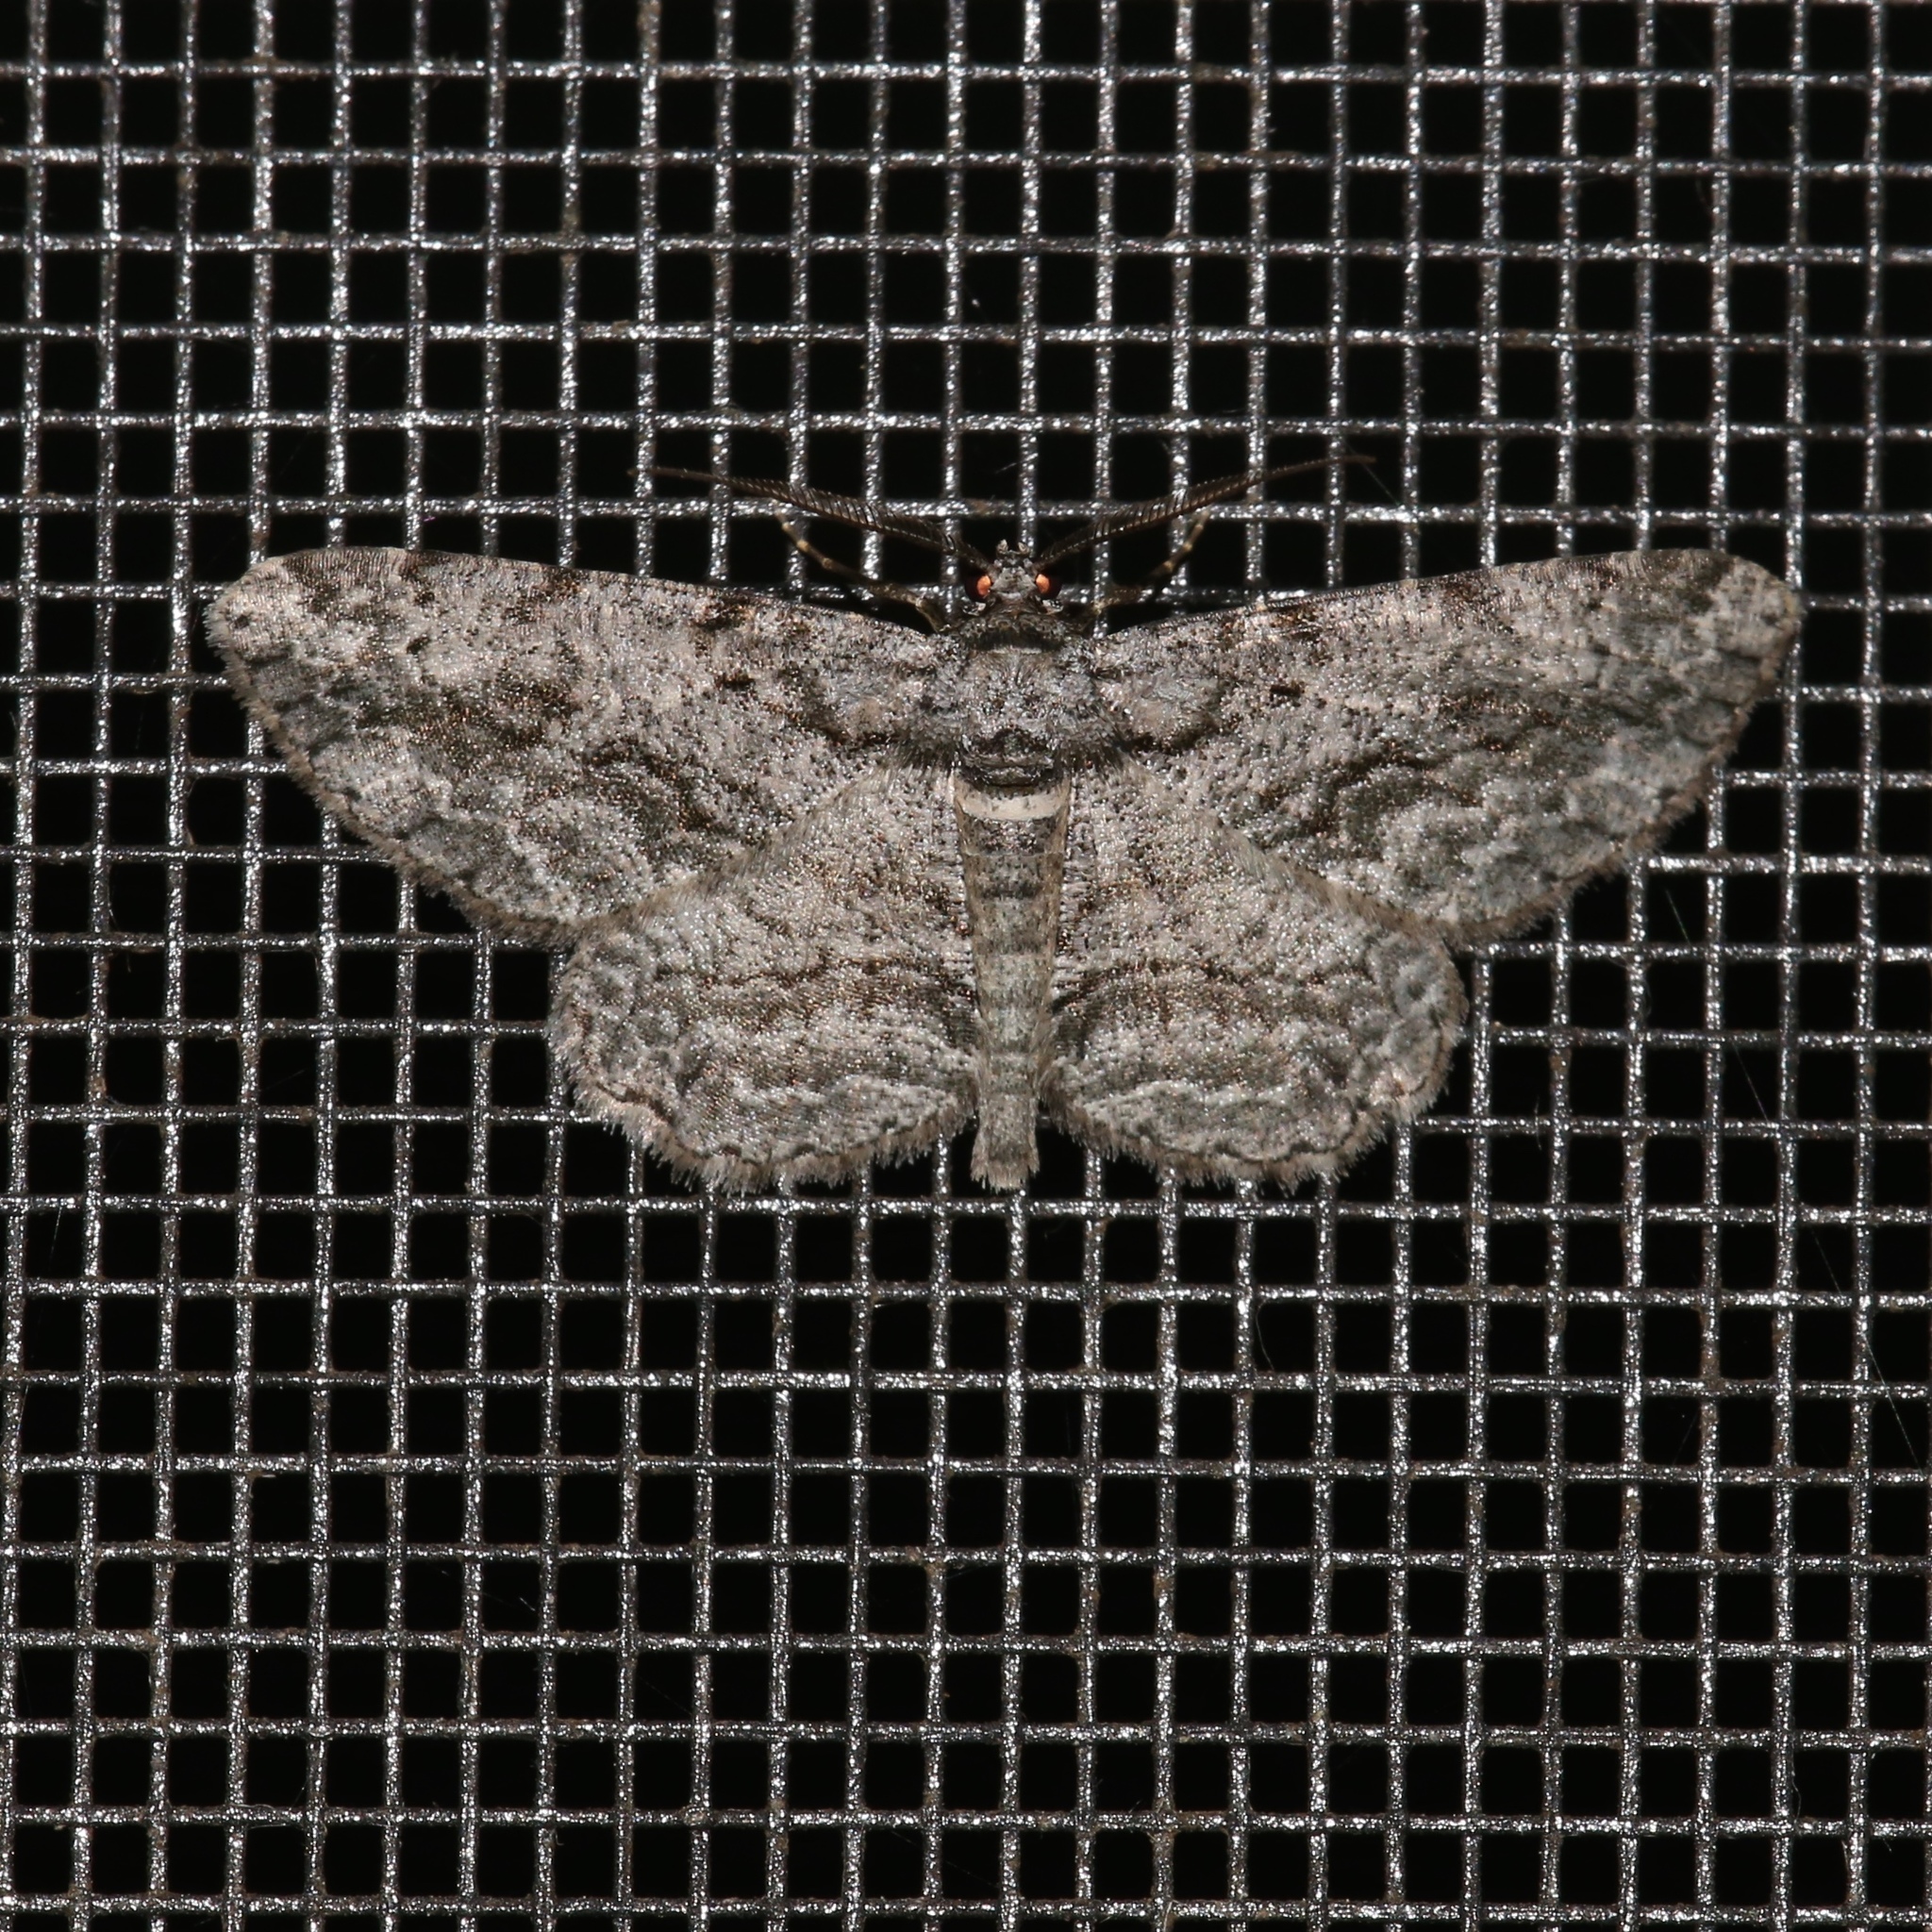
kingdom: Animalia
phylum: Arthropoda
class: Insecta
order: Lepidoptera
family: Geometridae
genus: Anavitrinella
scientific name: Anavitrinella pampinaria
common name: Common gray
